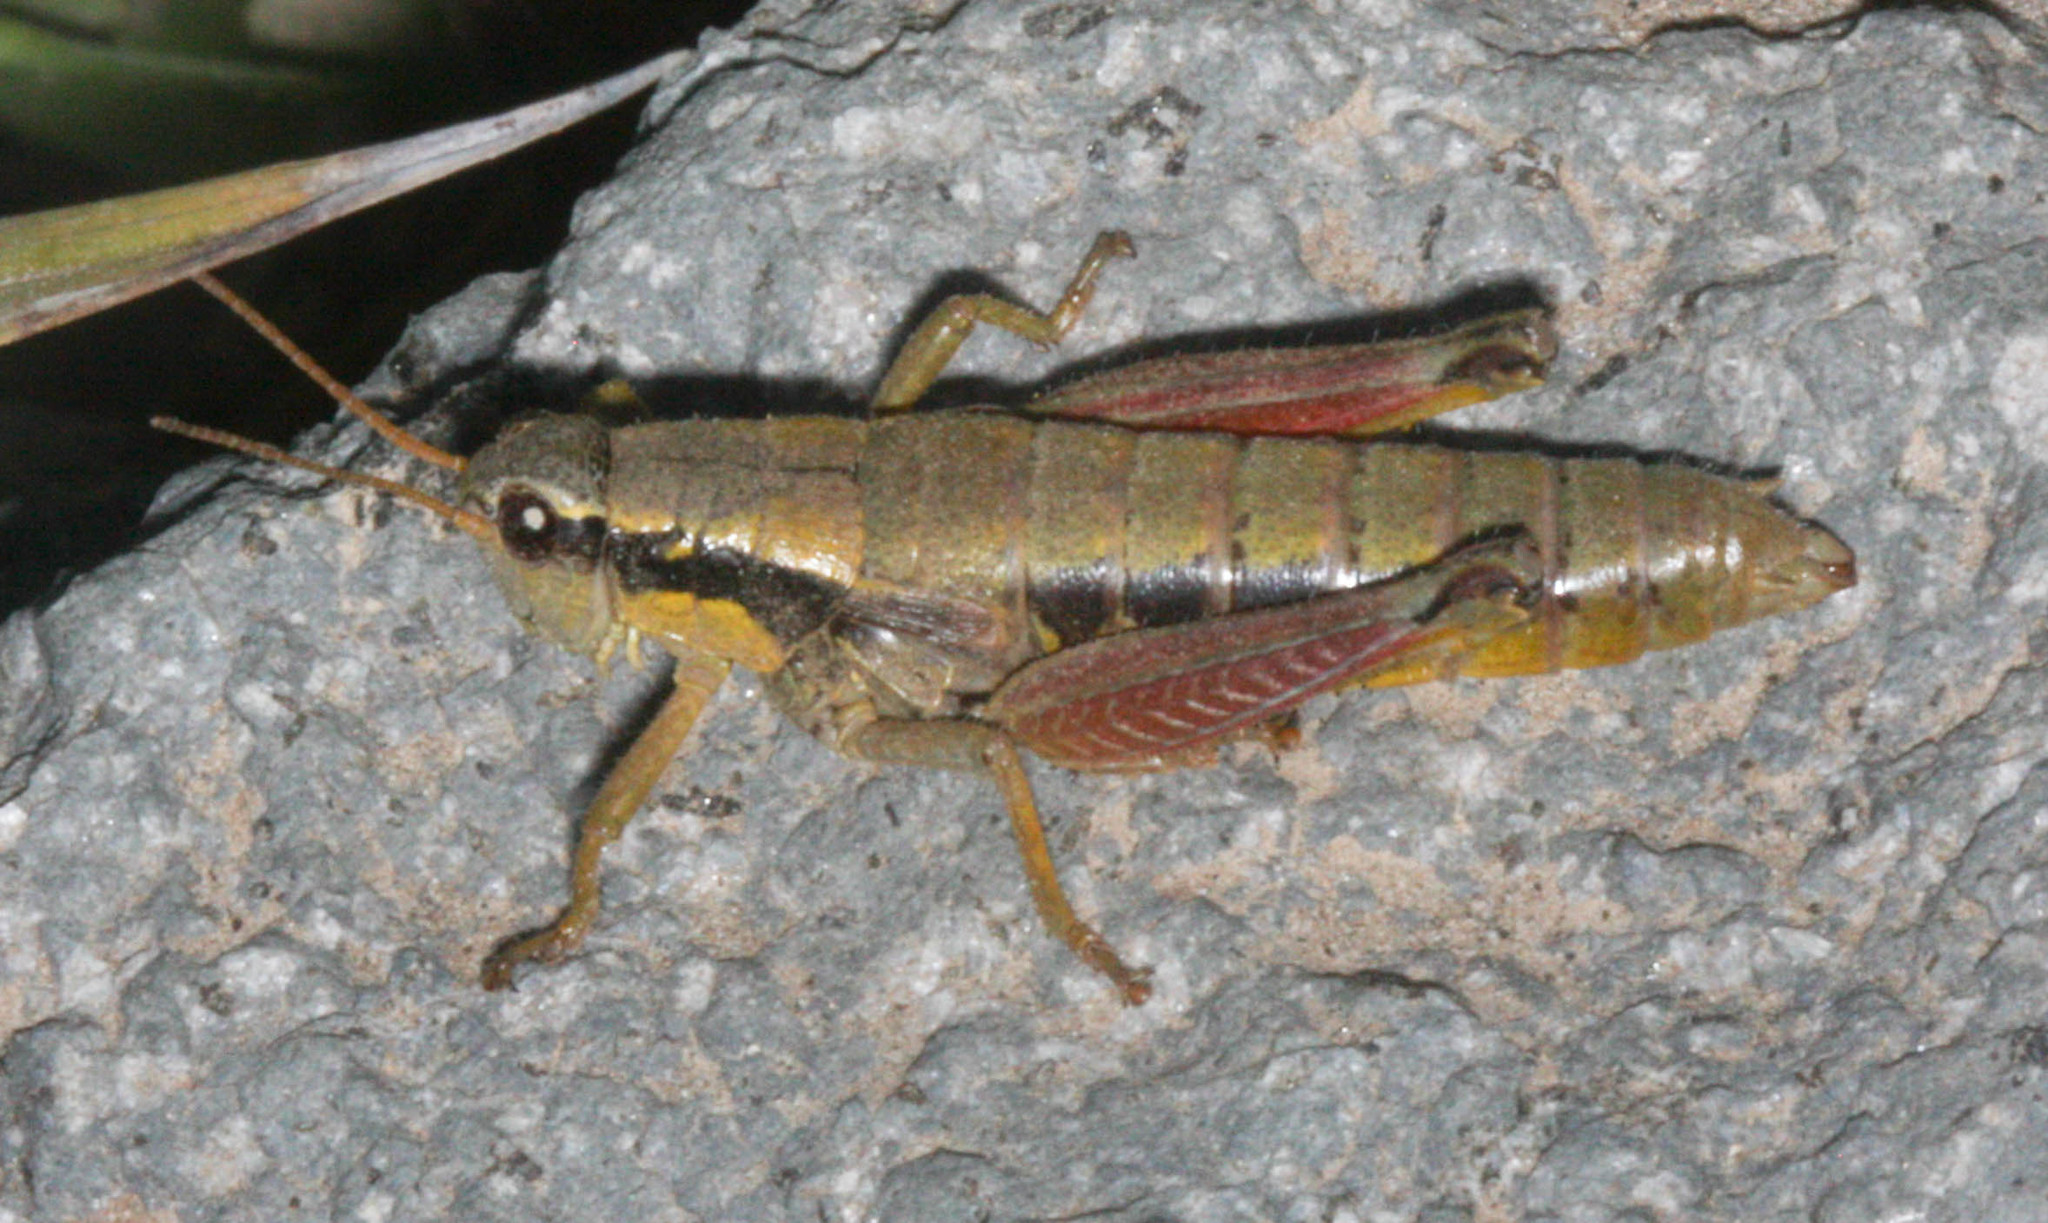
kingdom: Animalia
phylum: Arthropoda
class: Insecta
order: Orthoptera
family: Acrididae
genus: Prumnacris
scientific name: Prumnacris rainierensis
